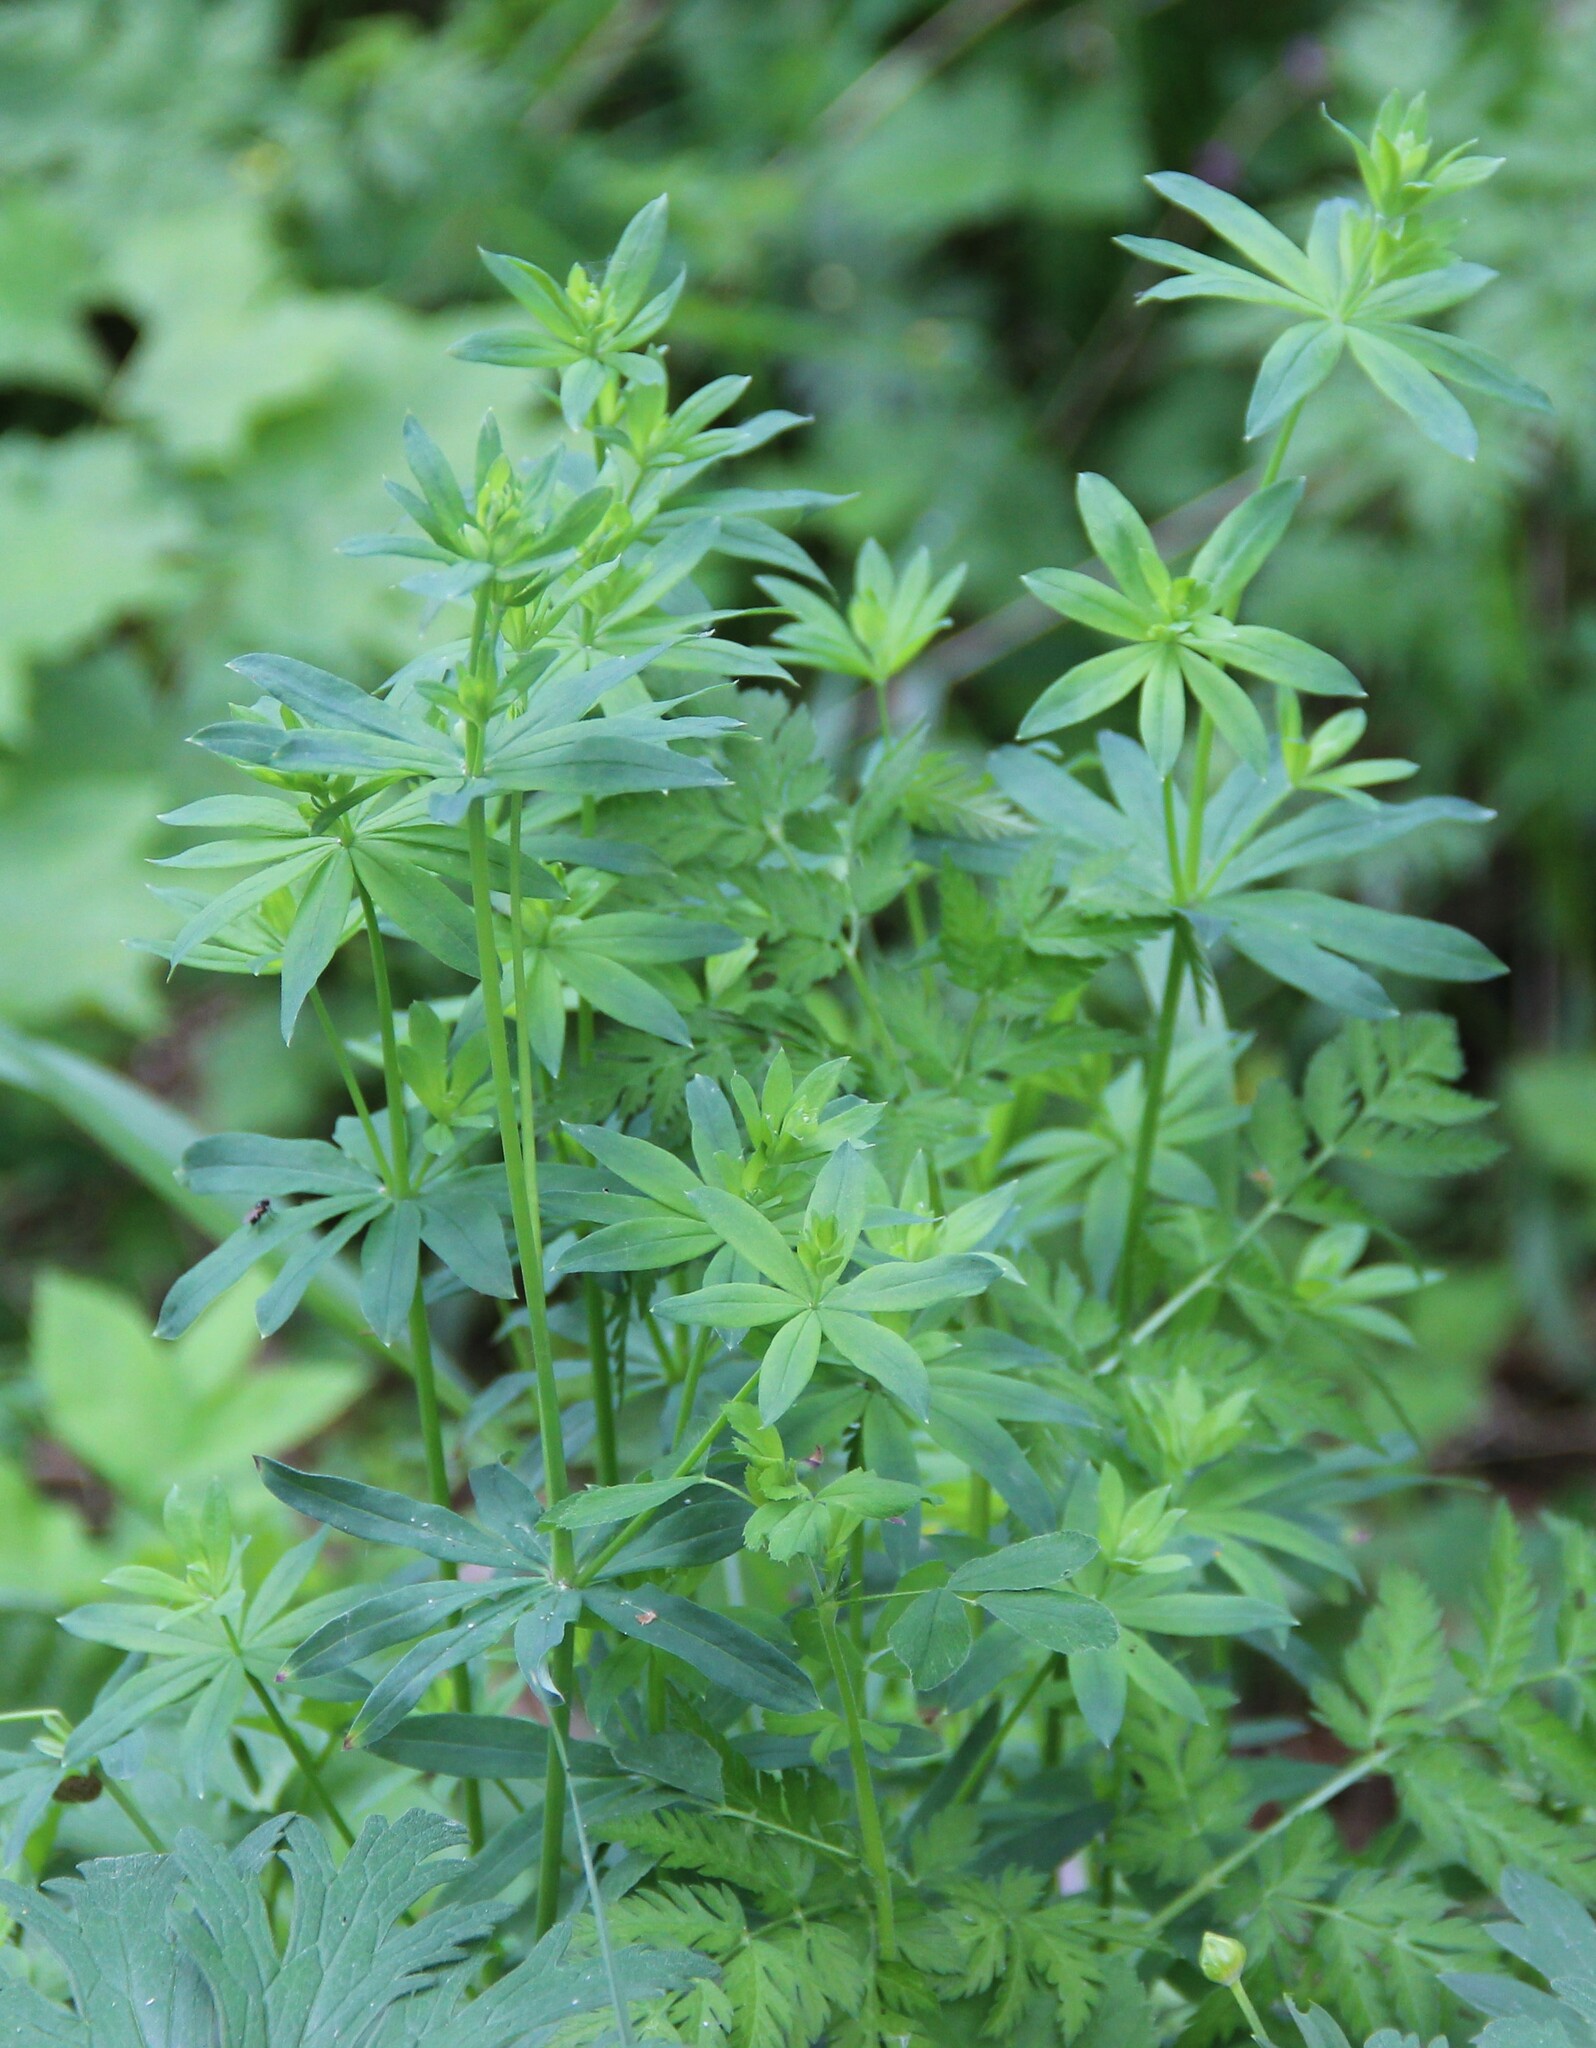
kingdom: Plantae
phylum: Tracheophyta
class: Magnoliopsida
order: Gentianales
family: Rubiaceae
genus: Galium
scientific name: Galium intermedium
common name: Bedstraw
